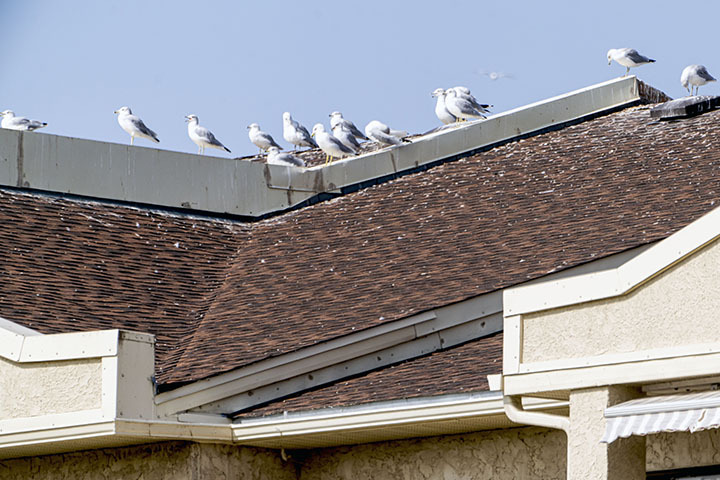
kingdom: Animalia
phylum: Chordata
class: Aves
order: Charadriiformes
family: Laridae
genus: Larus
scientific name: Larus delawarensis
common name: Ring-billed gull
